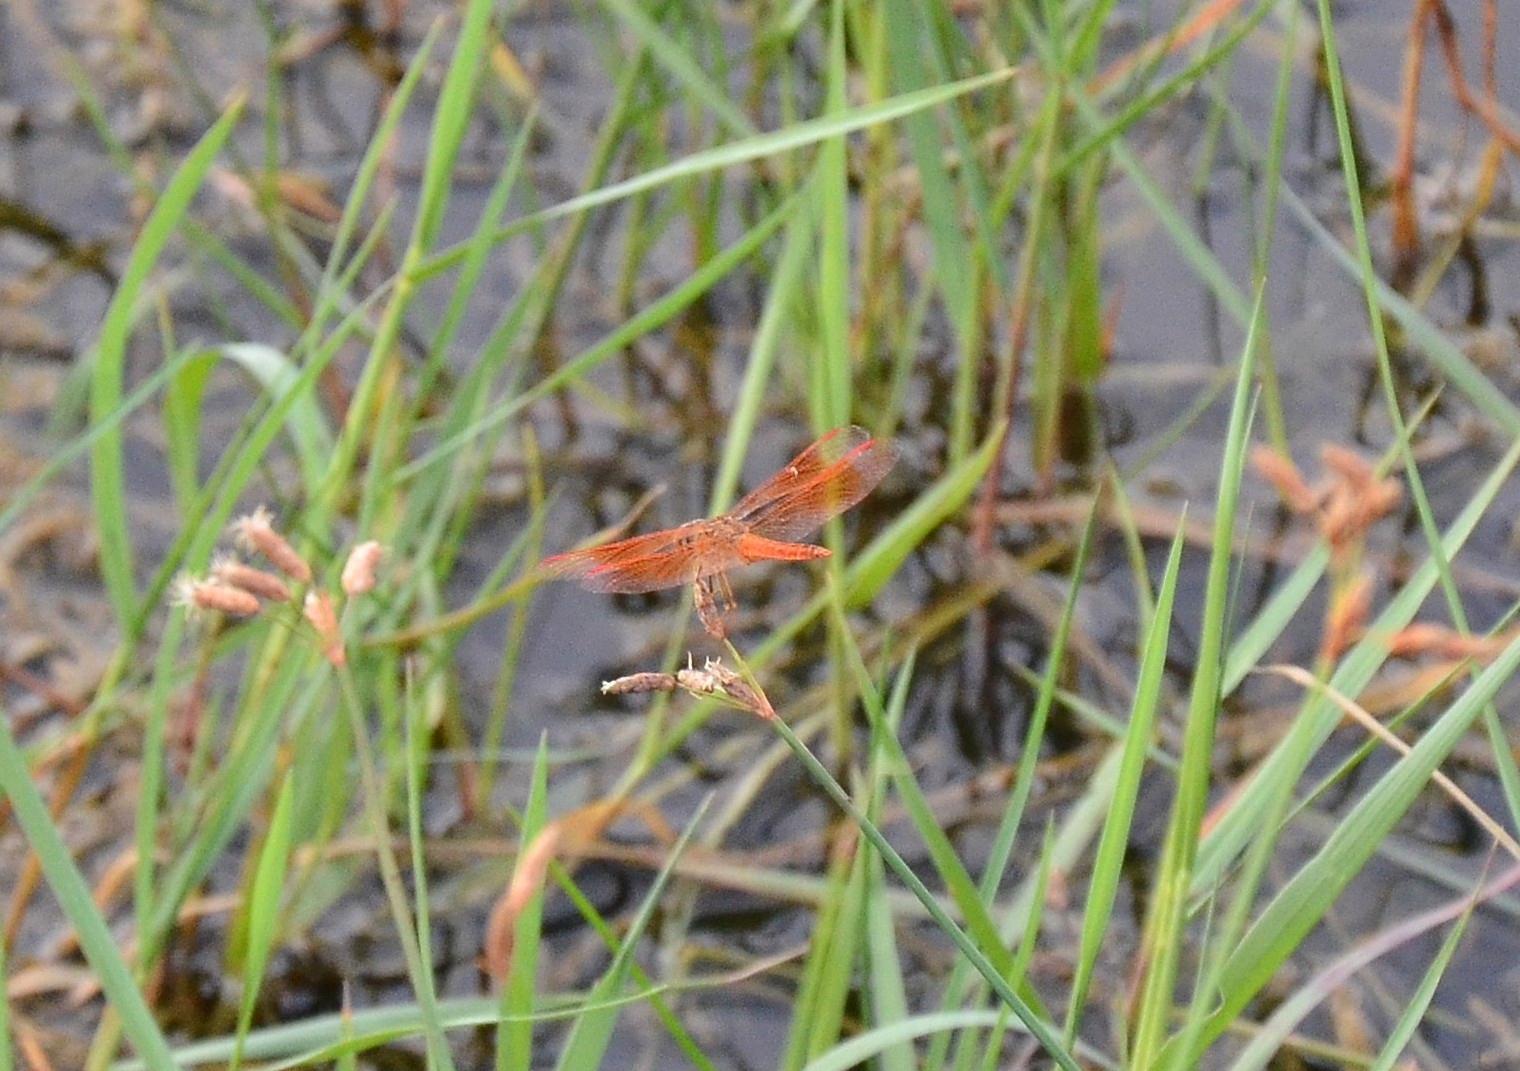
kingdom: Animalia
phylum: Arthropoda
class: Insecta
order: Odonata
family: Libellulidae
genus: Brachythemis
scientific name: Brachythemis contaminata
